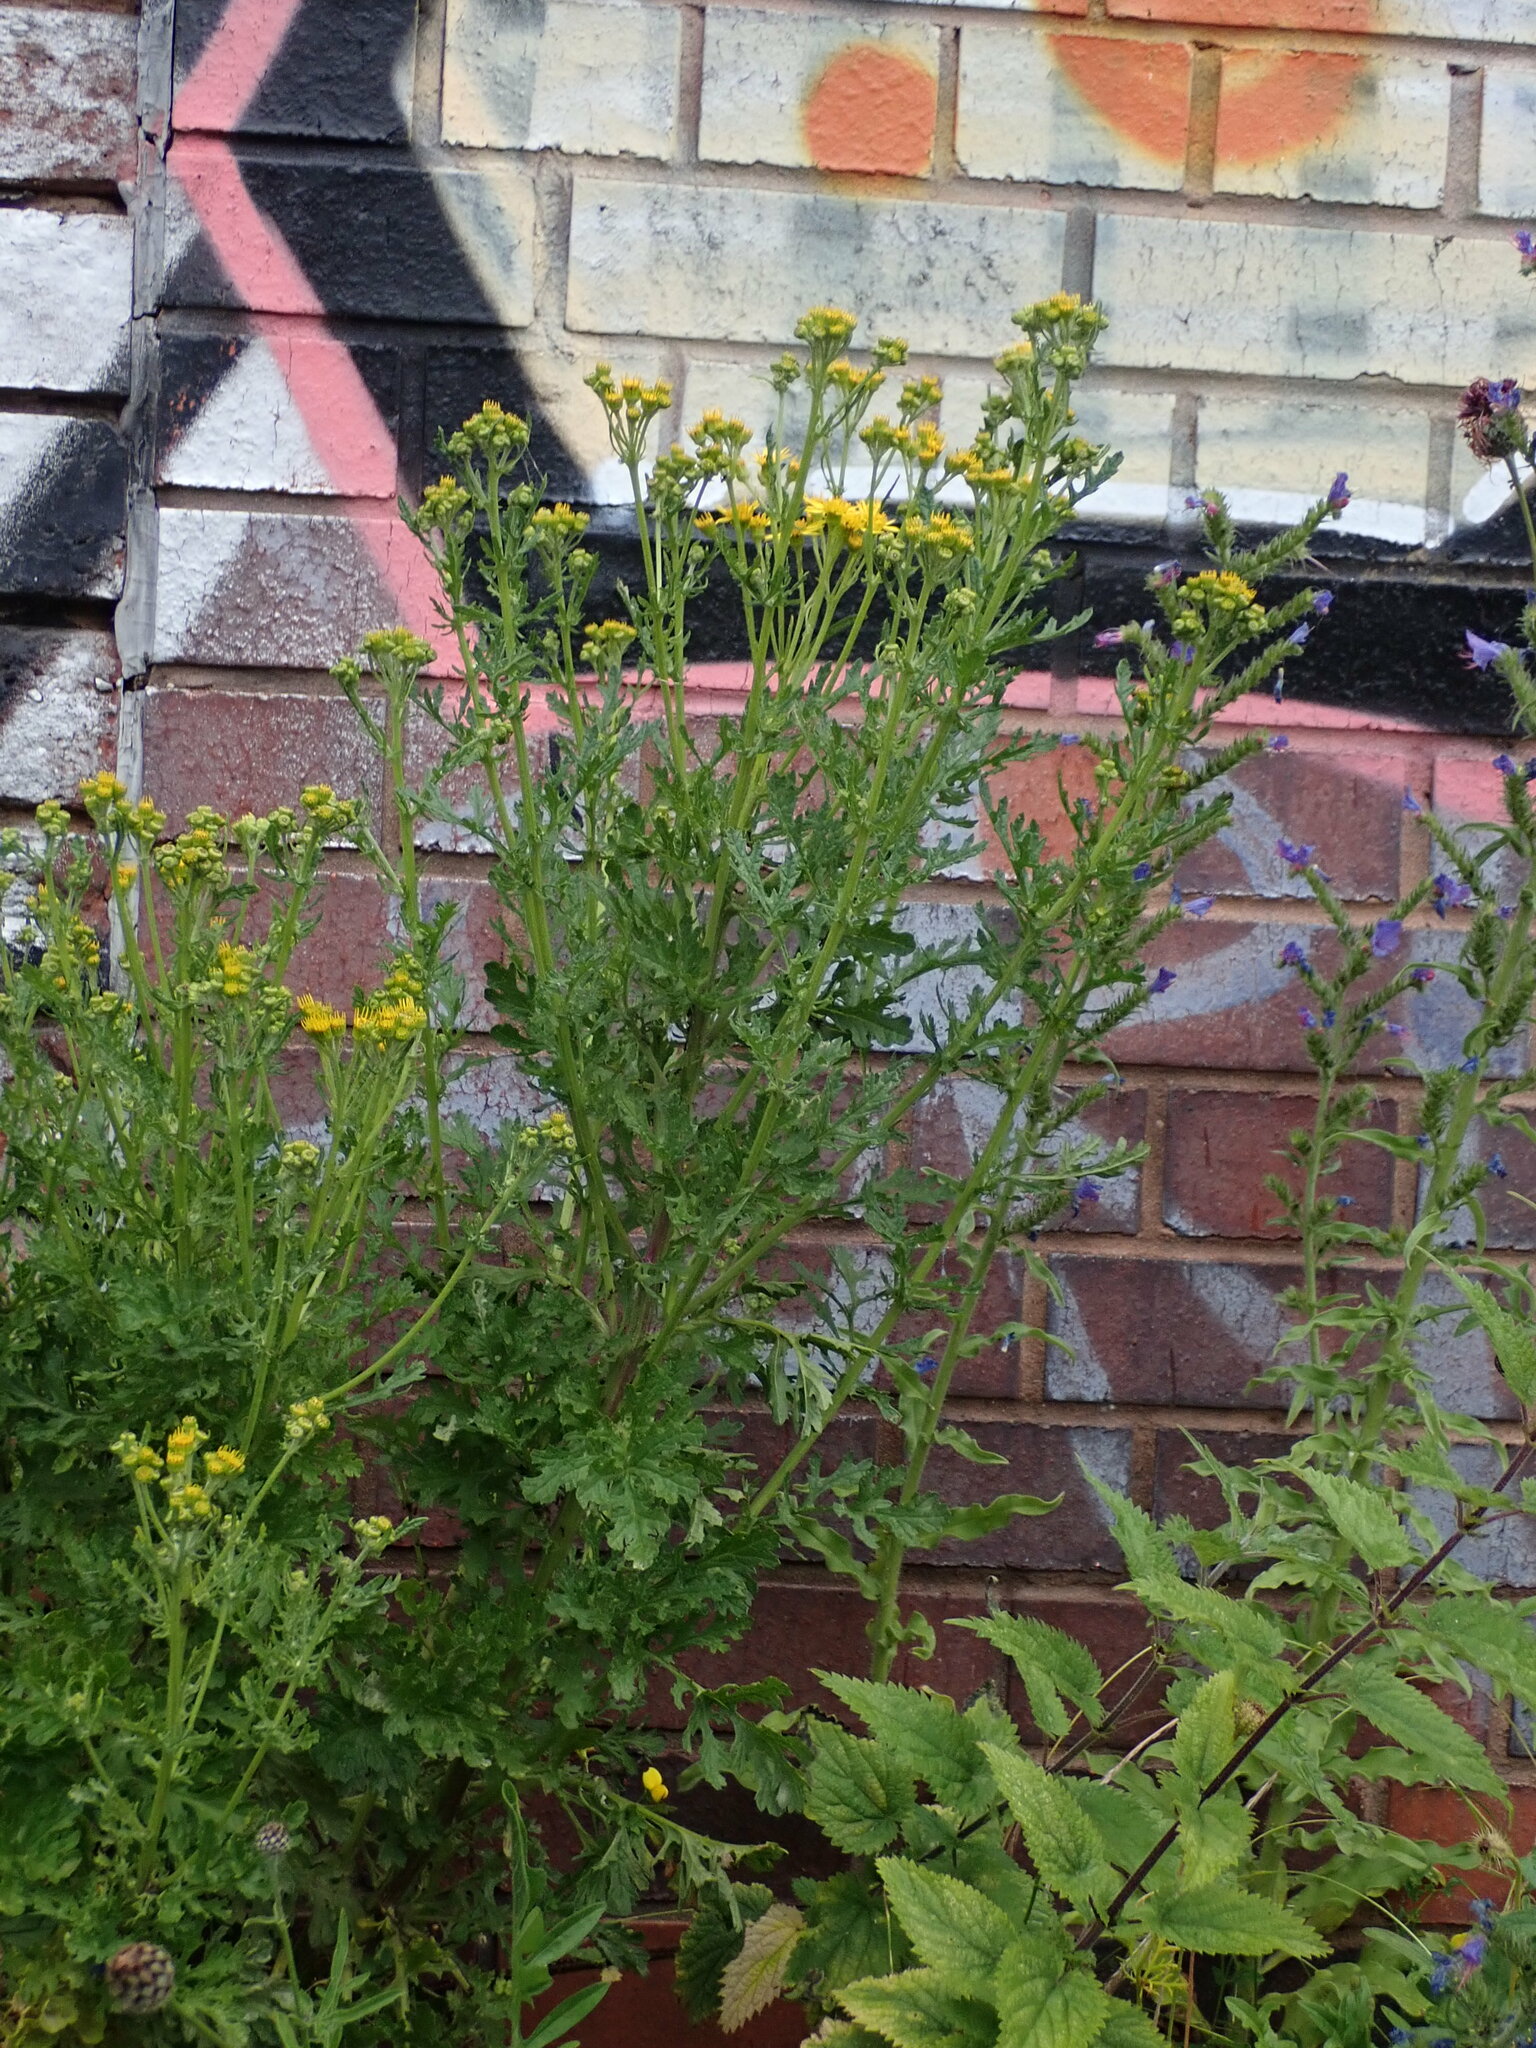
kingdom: Plantae
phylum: Tracheophyta
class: Magnoliopsida
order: Asterales
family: Asteraceae
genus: Jacobaea
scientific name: Jacobaea vulgaris
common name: Stinking willie
